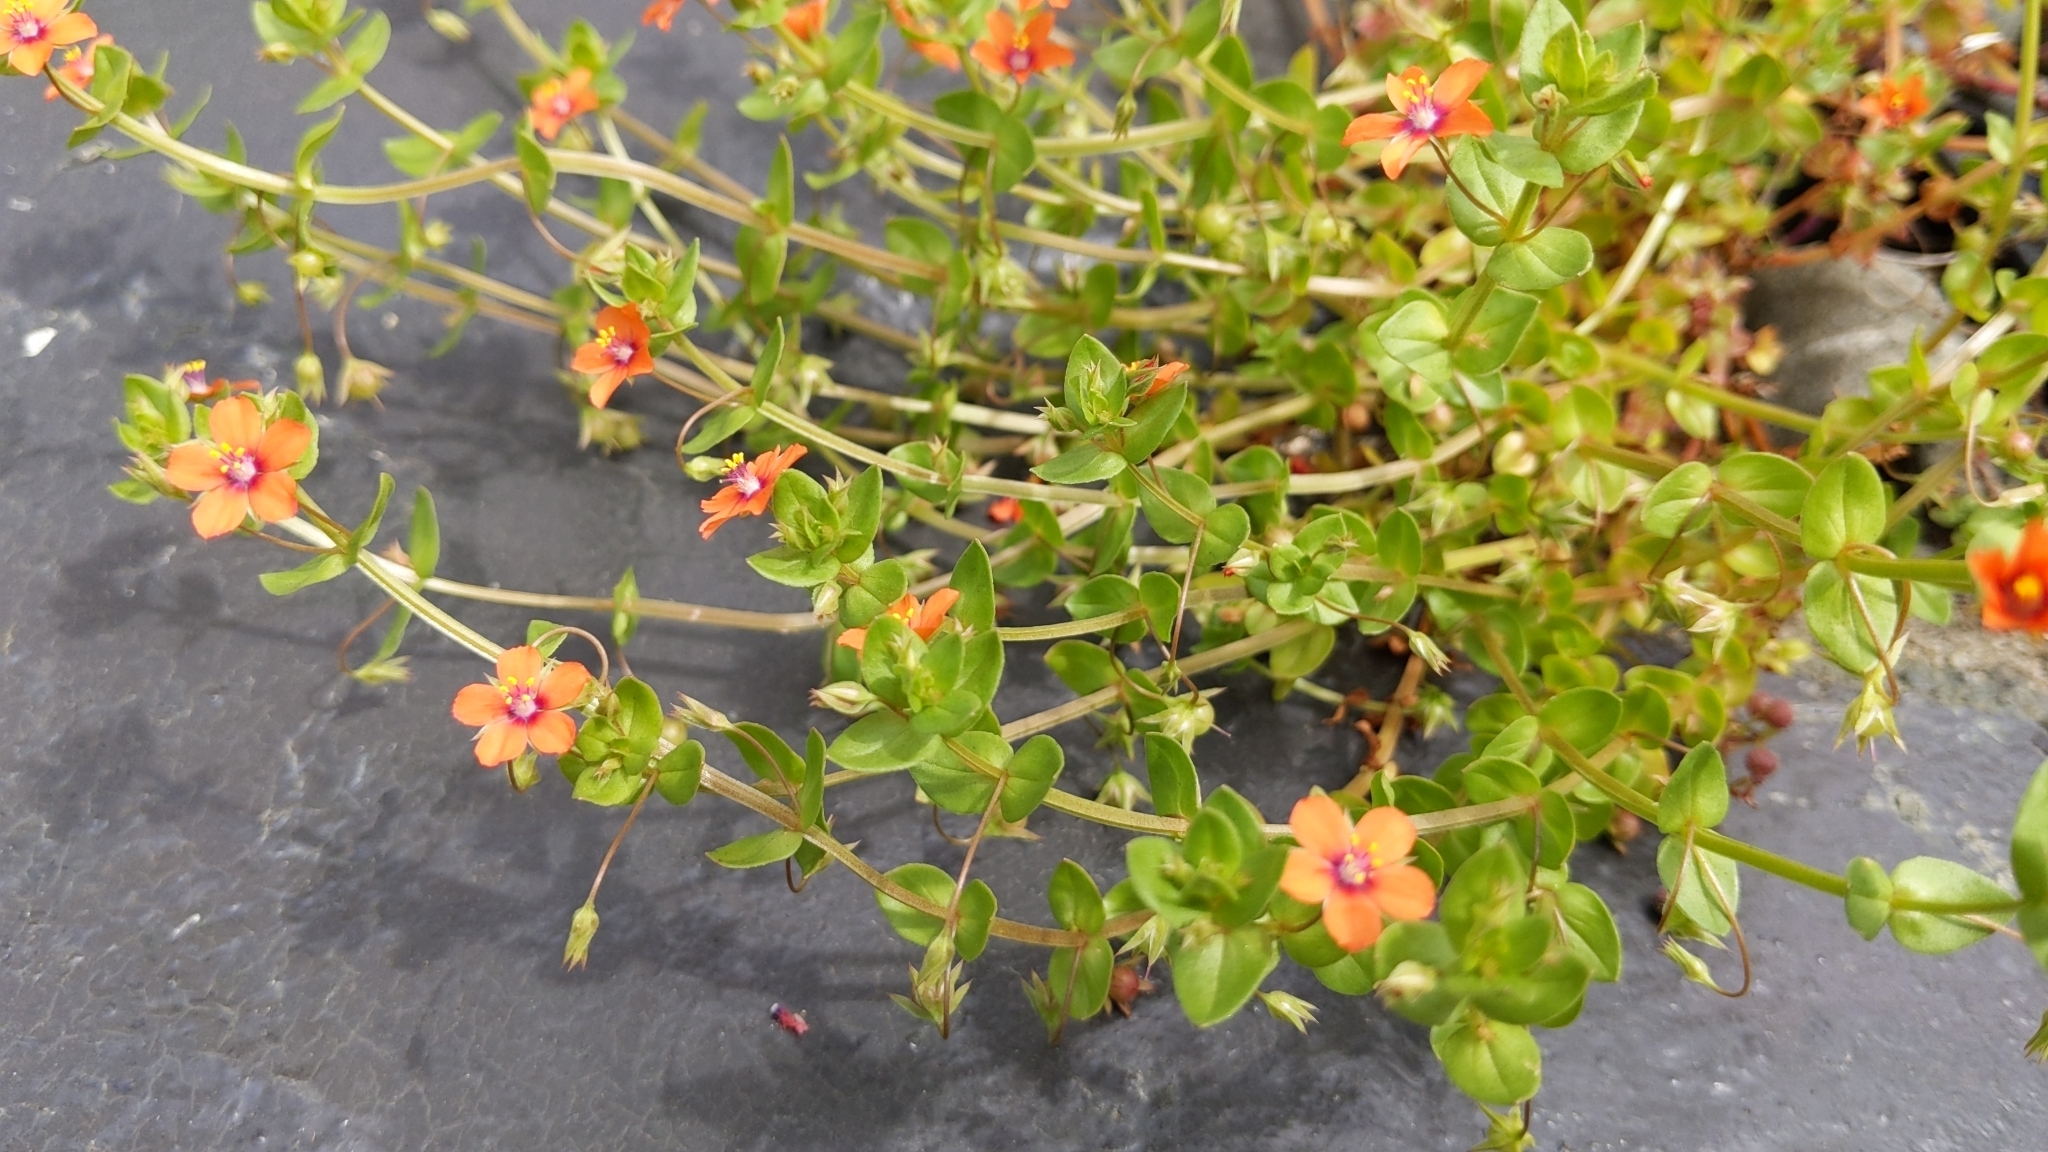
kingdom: Plantae
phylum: Tracheophyta
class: Magnoliopsida
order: Ericales
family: Primulaceae
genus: Lysimachia
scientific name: Lysimachia arvensis
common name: Scarlet pimpernel
